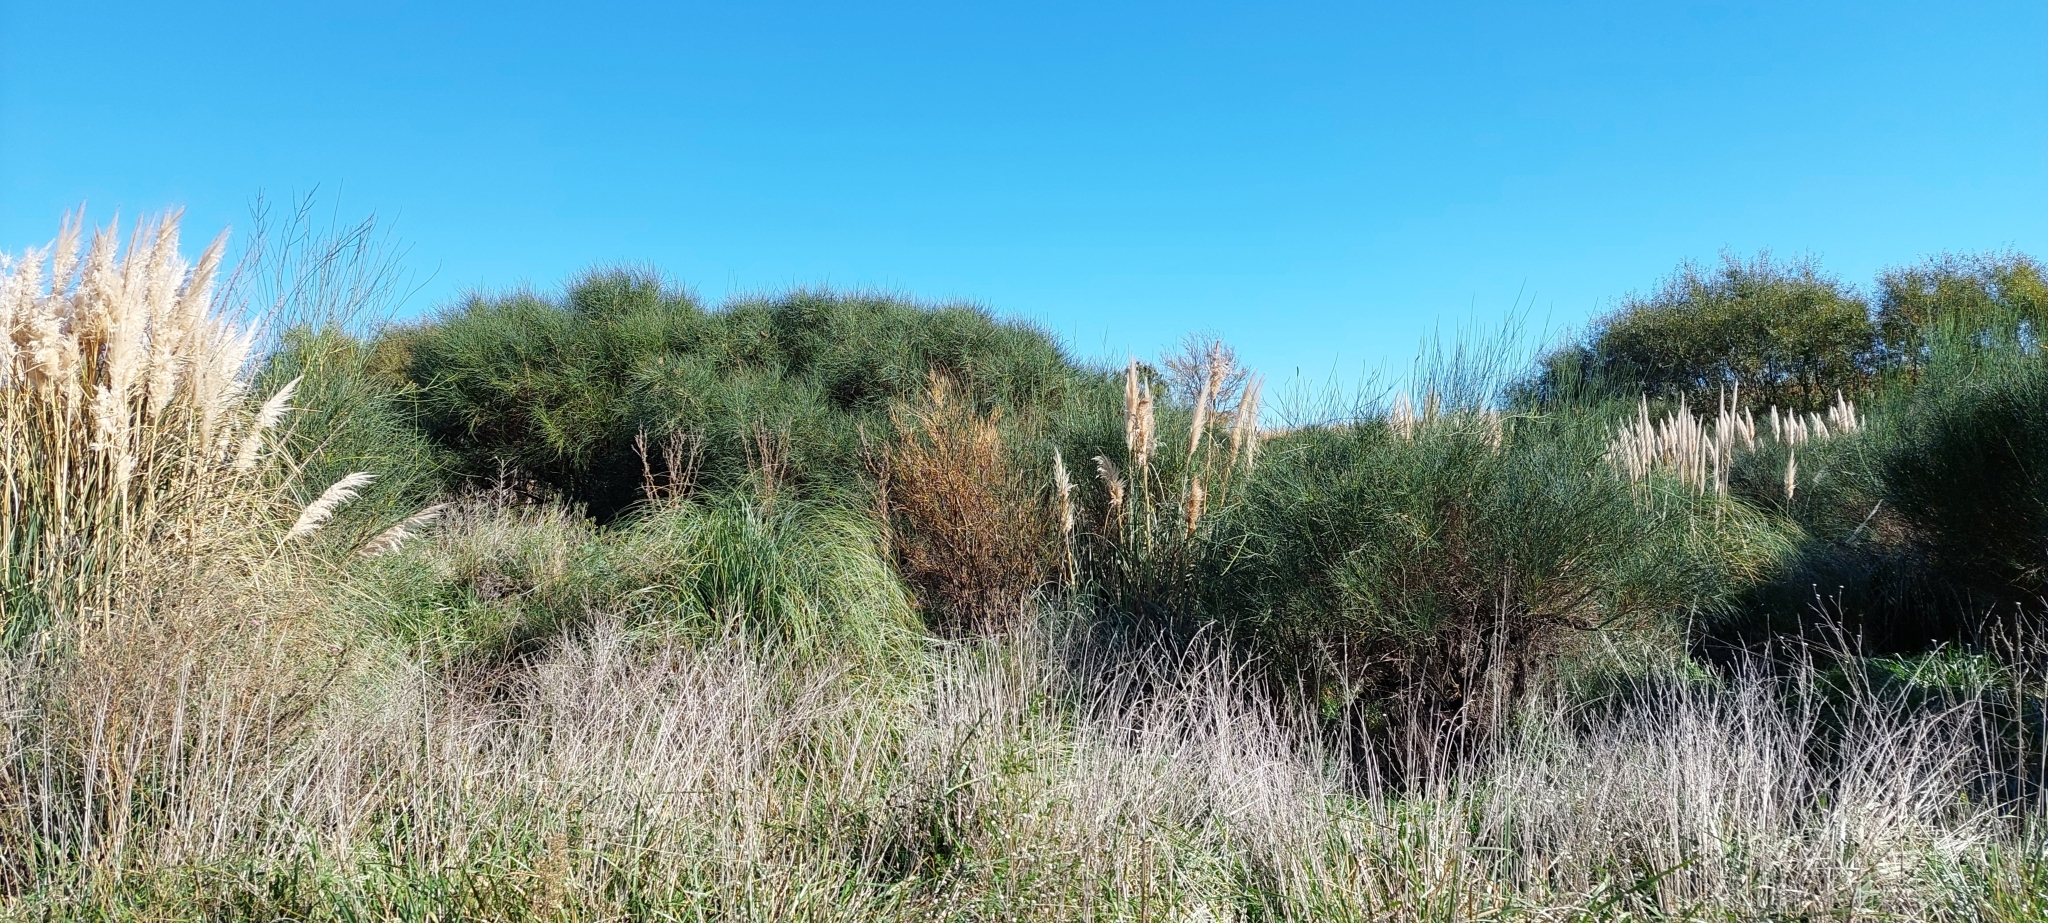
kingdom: Plantae
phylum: Tracheophyta
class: Liliopsida
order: Poales
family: Poaceae
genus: Cortaderia
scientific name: Cortaderia selloana
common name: Uruguayan pampas grass
